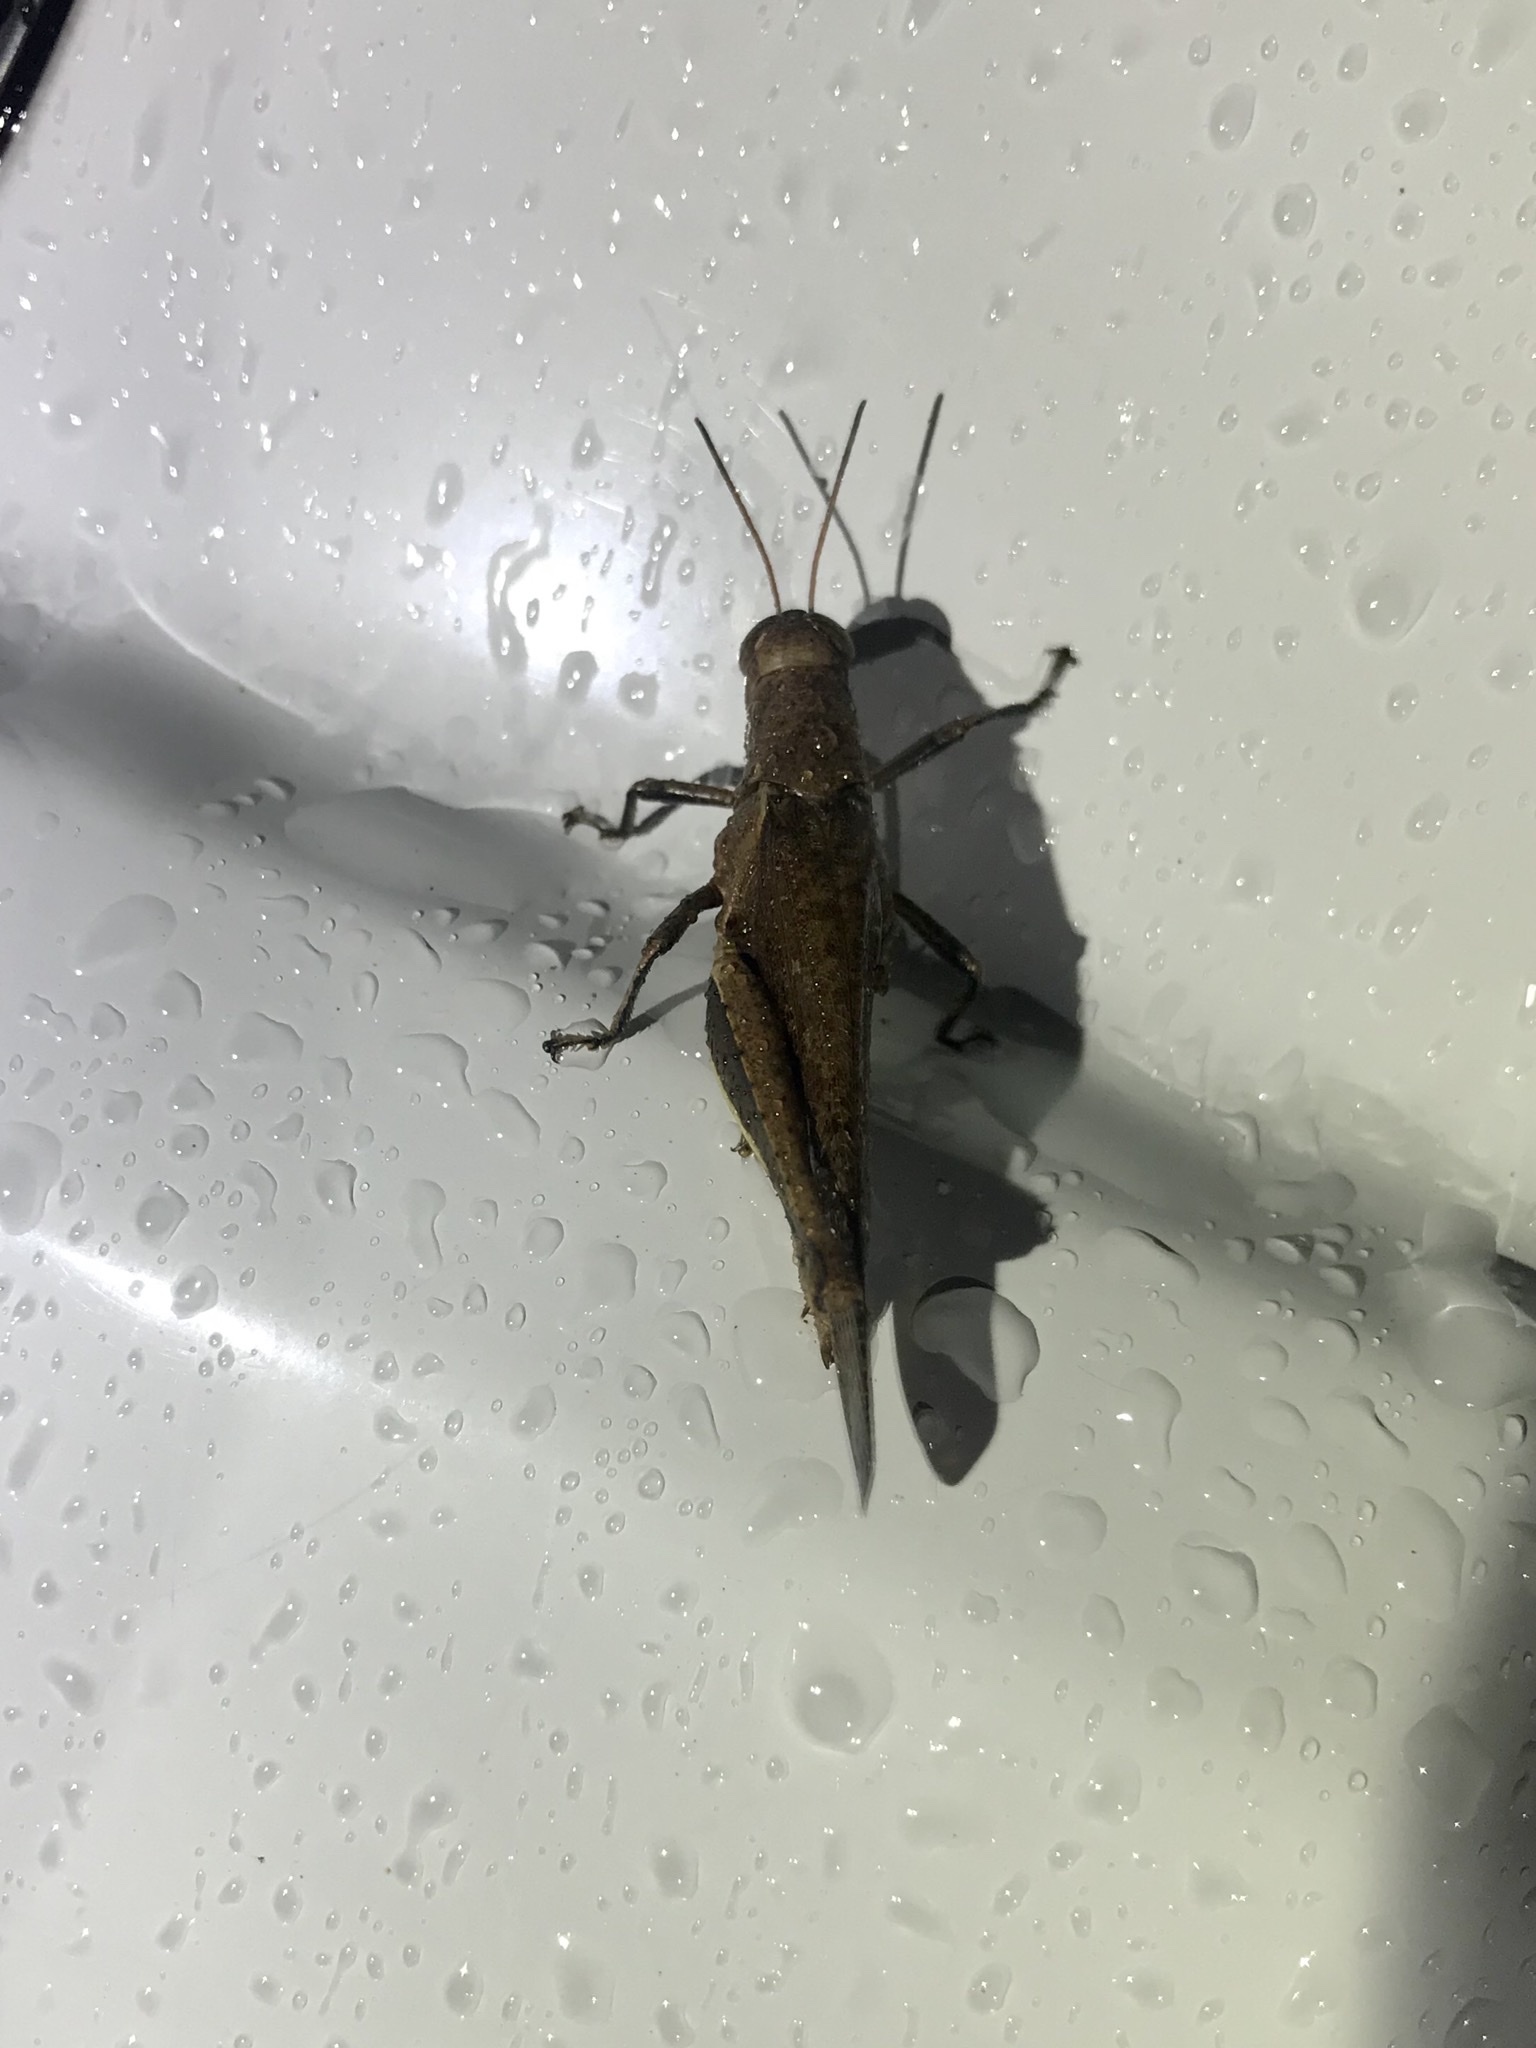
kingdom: Animalia
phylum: Arthropoda
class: Insecta
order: Orthoptera
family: Acrididae
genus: Abracris
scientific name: Abracris flavolineata
